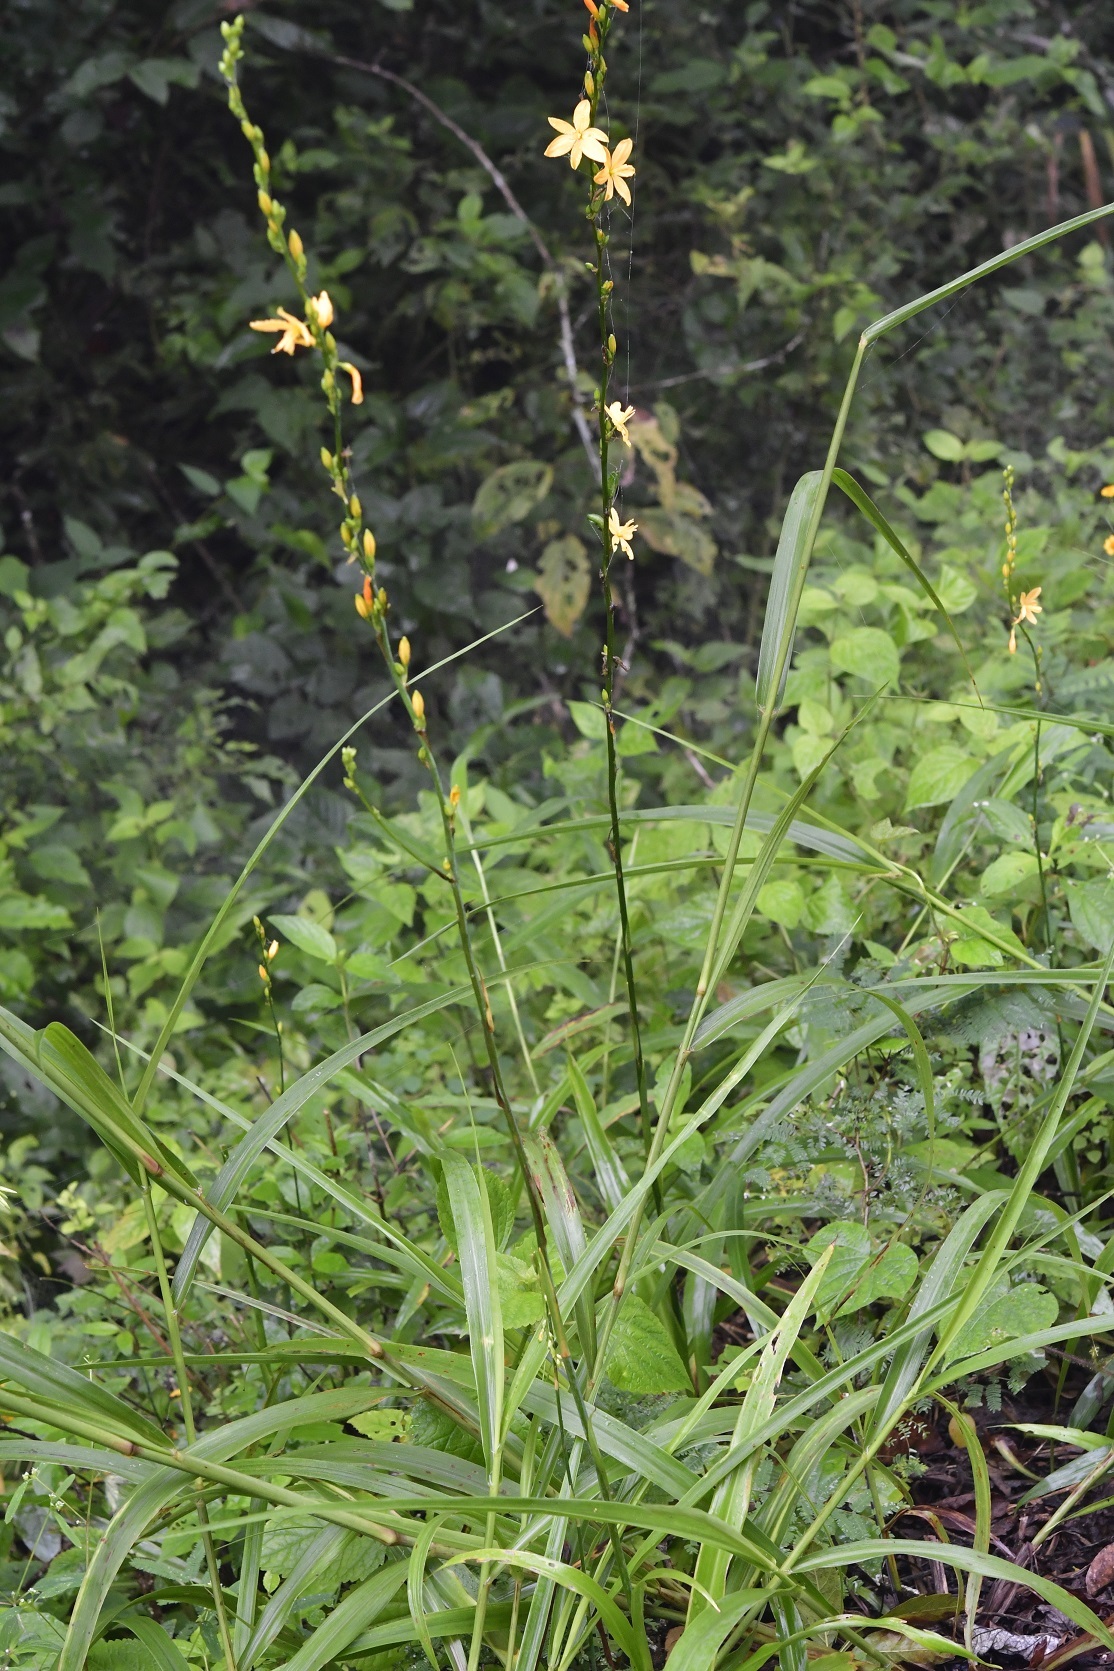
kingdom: Plantae
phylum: Tracheophyta
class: Liliopsida
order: Asparagales
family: Asparagaceae
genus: Echeandia
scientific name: Echeandia breedlovei
